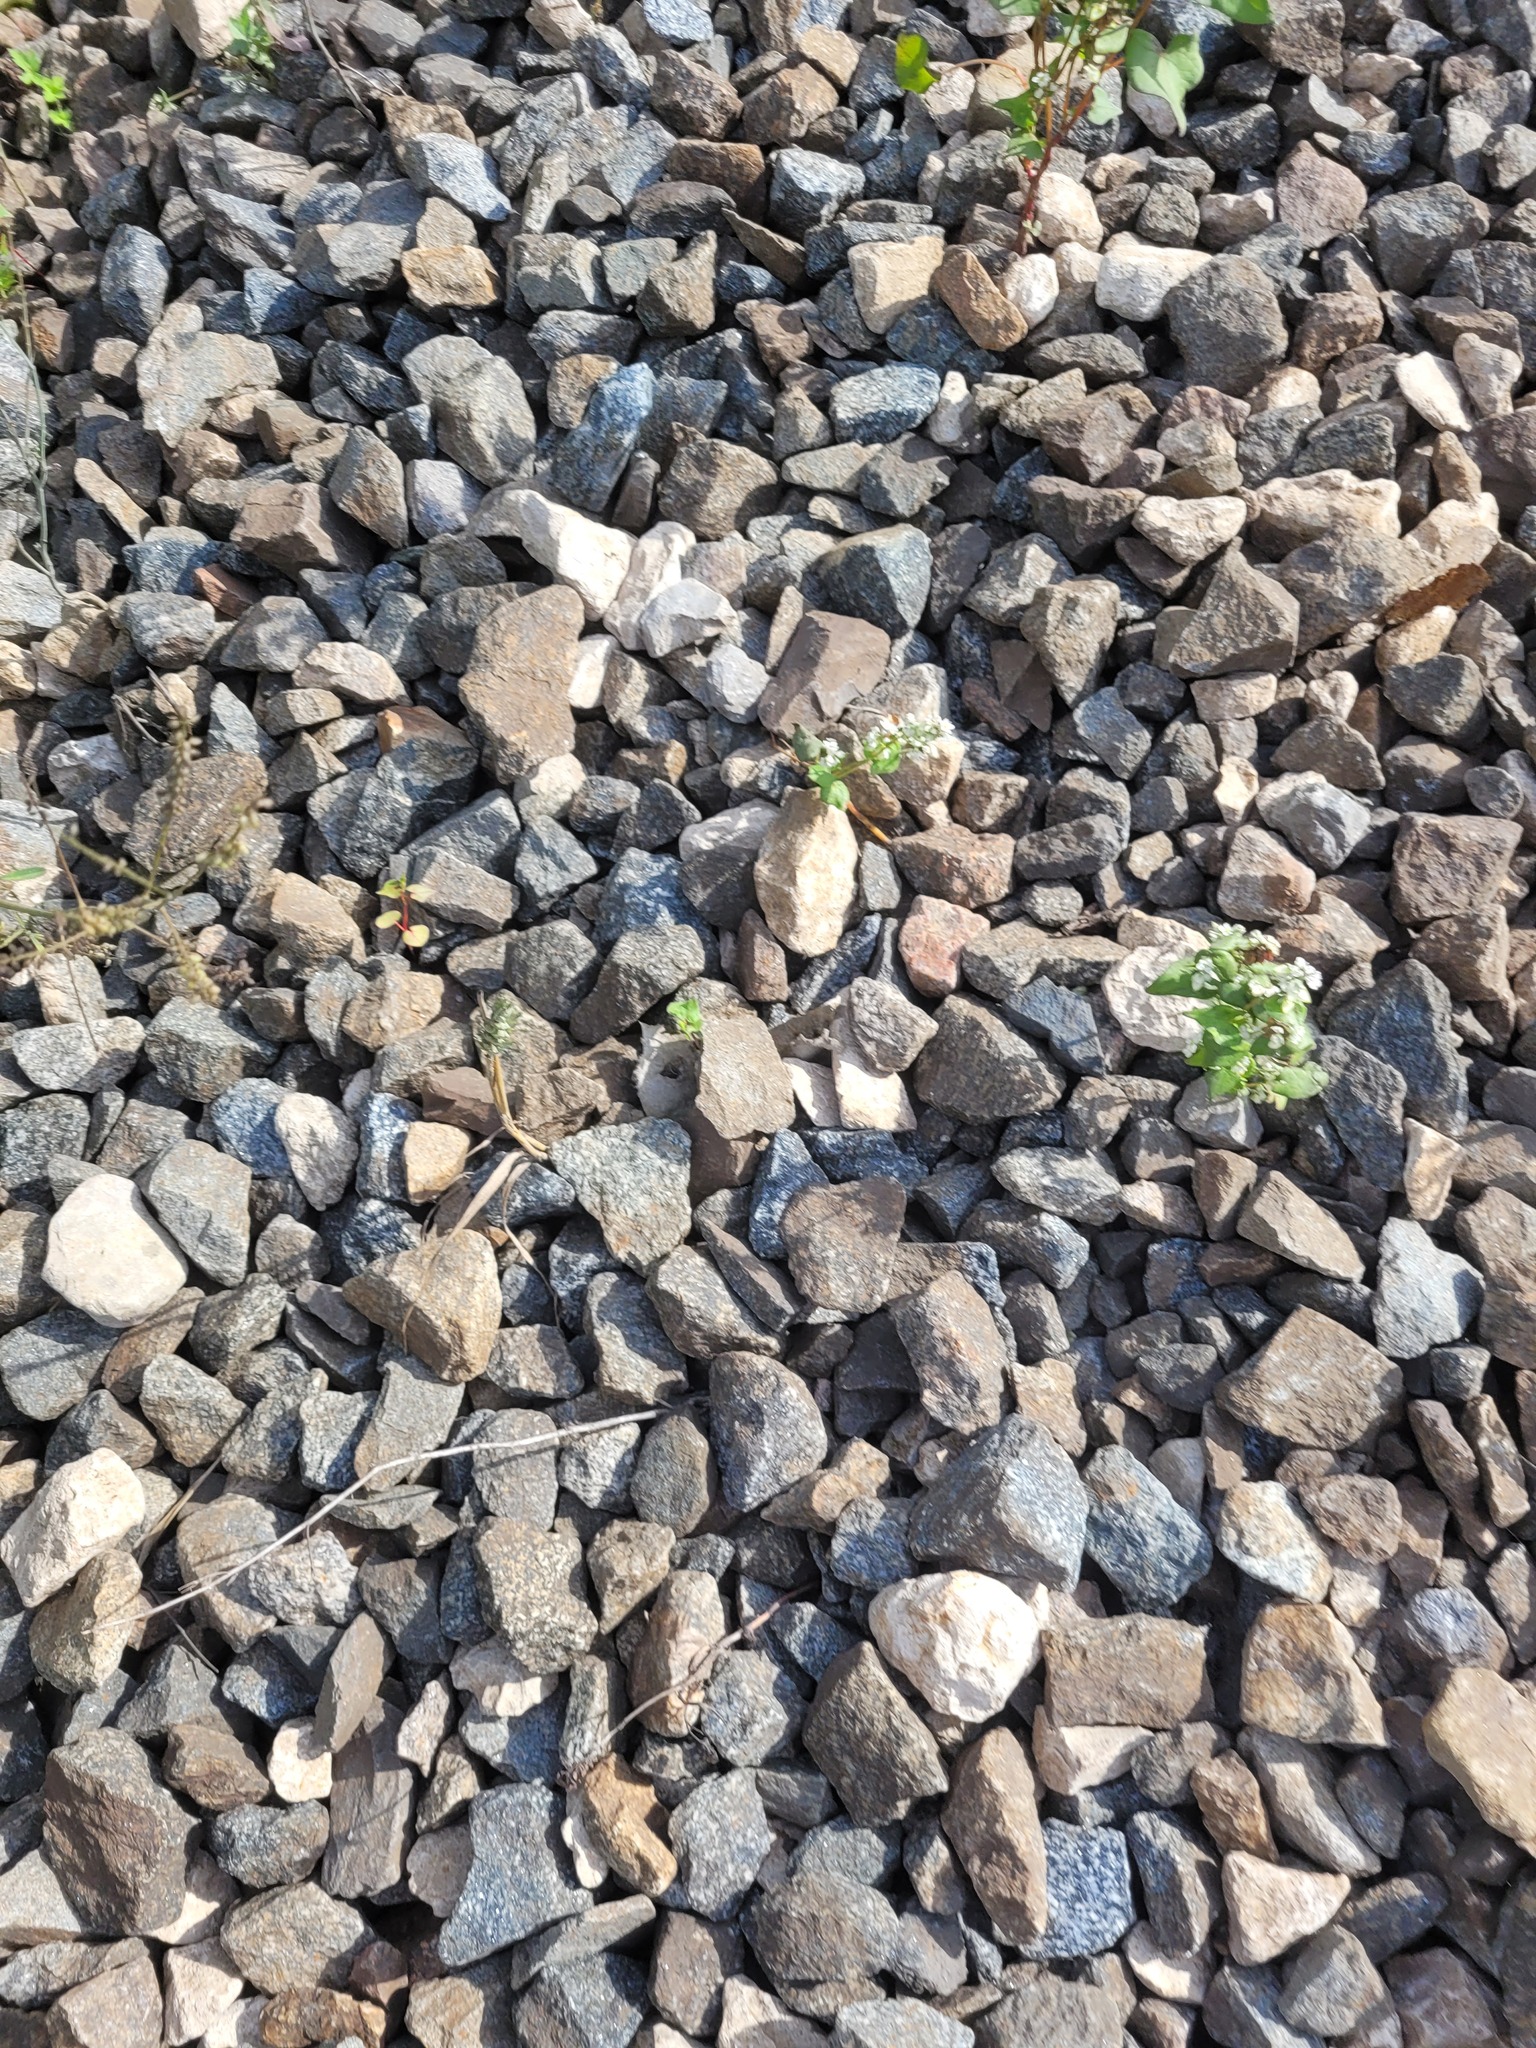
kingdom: Plantae
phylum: Tracheophyta
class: Magnoliopsida
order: Caryophyllales
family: Polygonaceae
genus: Fagopyrum
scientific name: Fagopyrum esculentum
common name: Buckwheat
